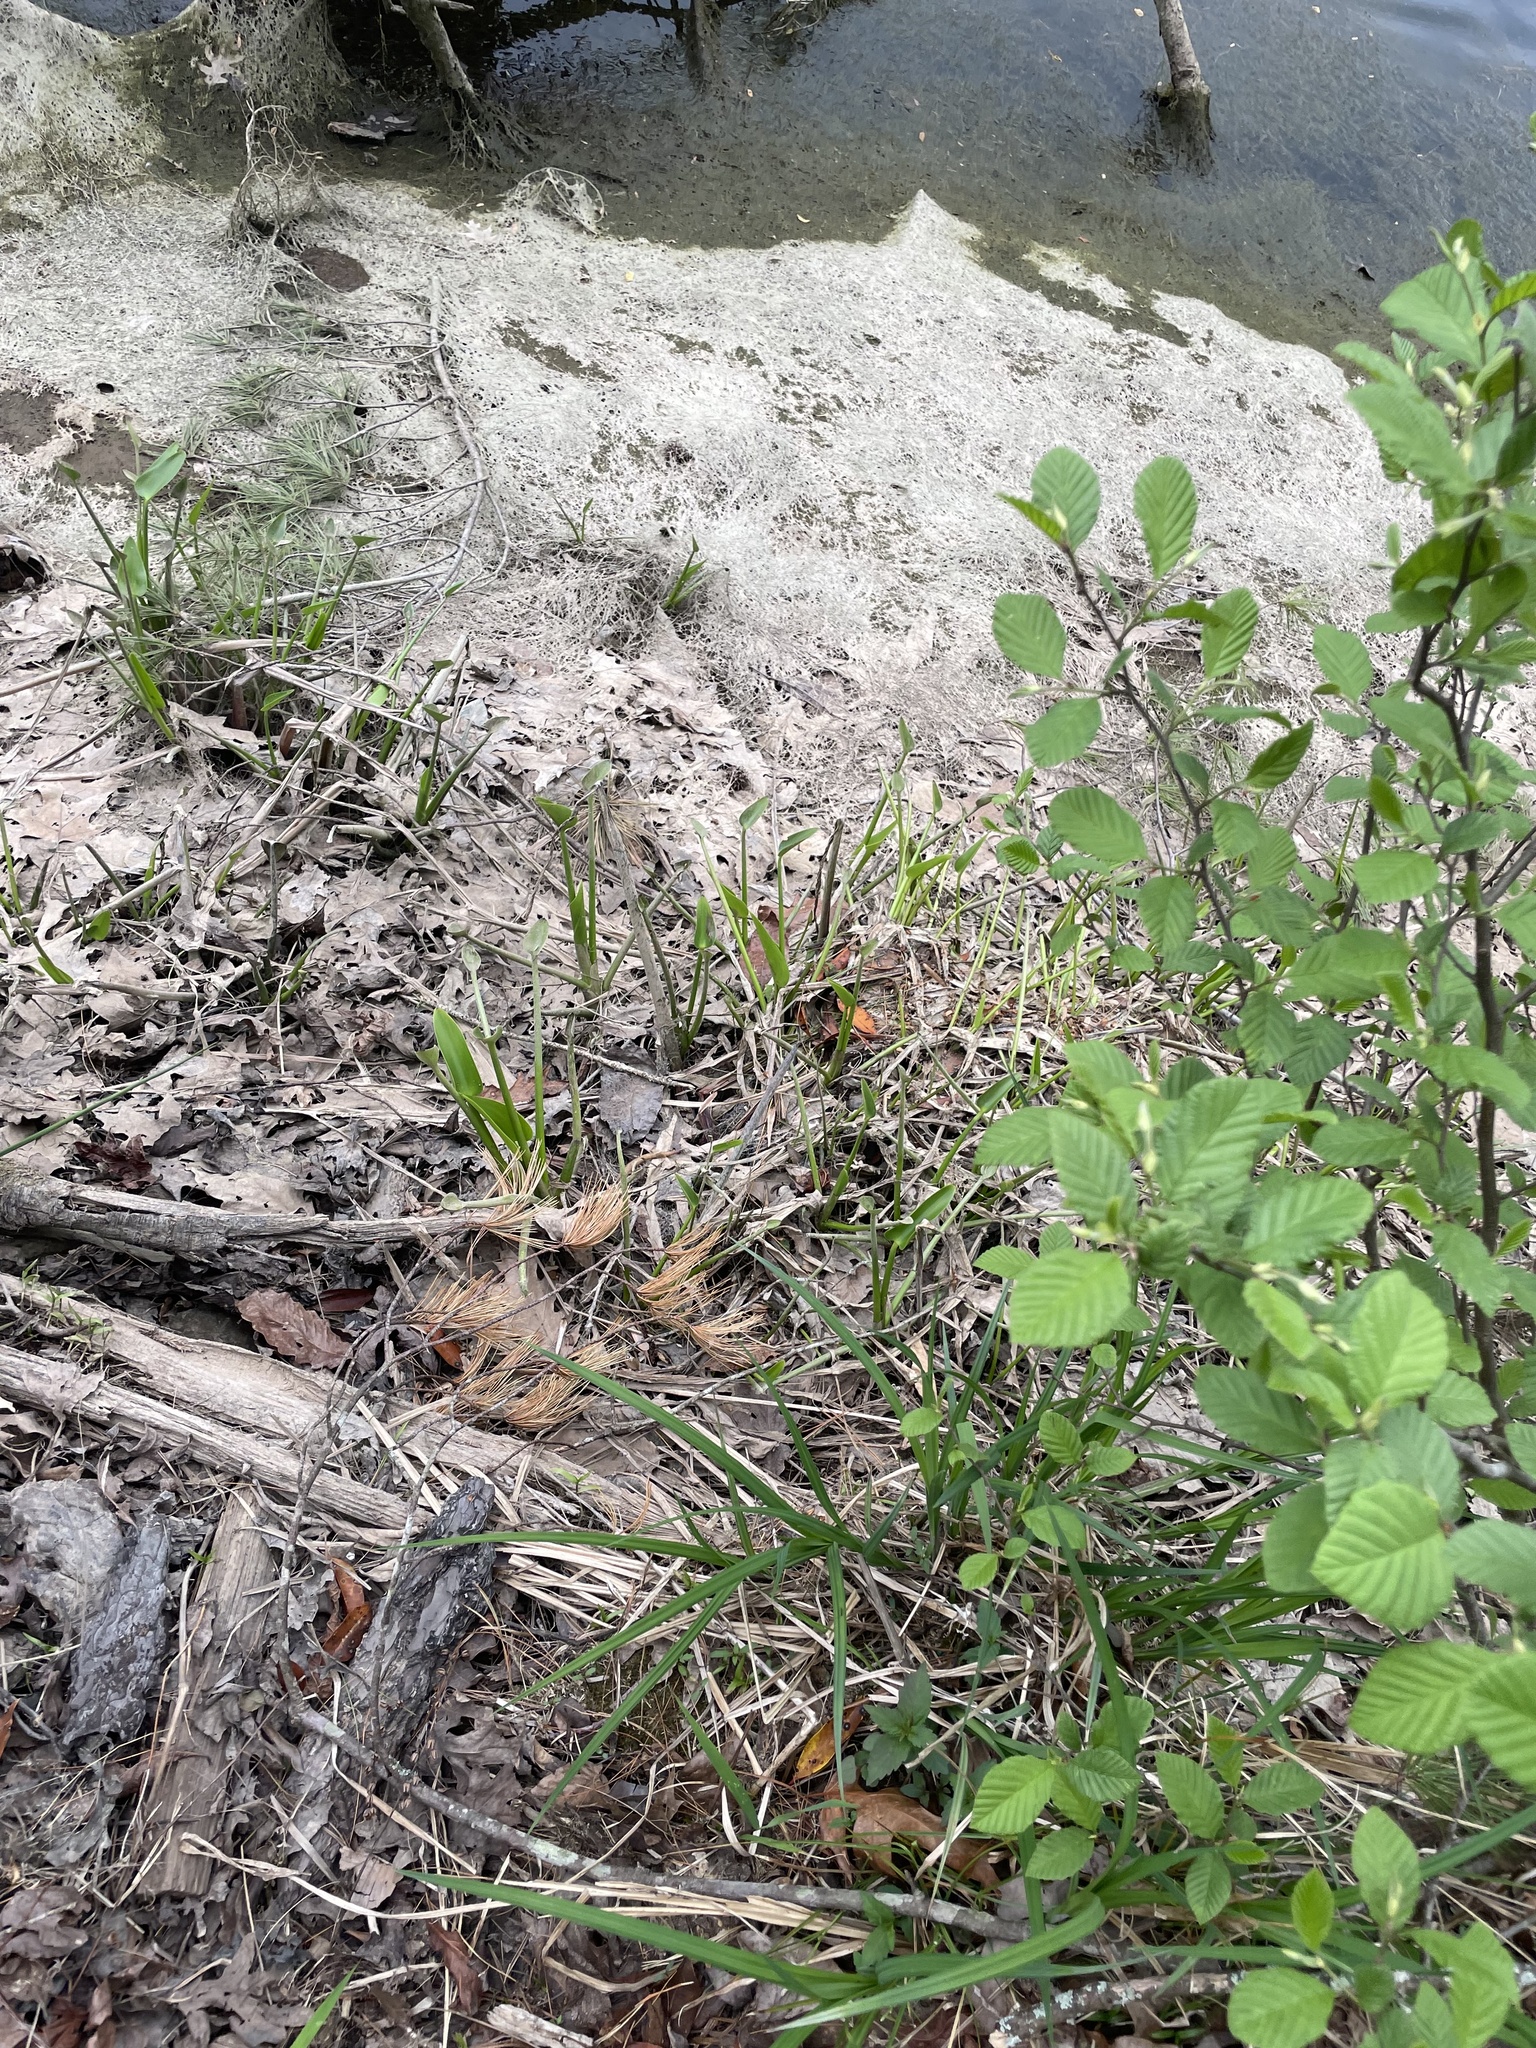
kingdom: Plantae
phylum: Tracheophyta
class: Liliopsida
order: Commelinales
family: Pontederiaceae
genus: Pontederia
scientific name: Pontederia cordata
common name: Pickerelweed
